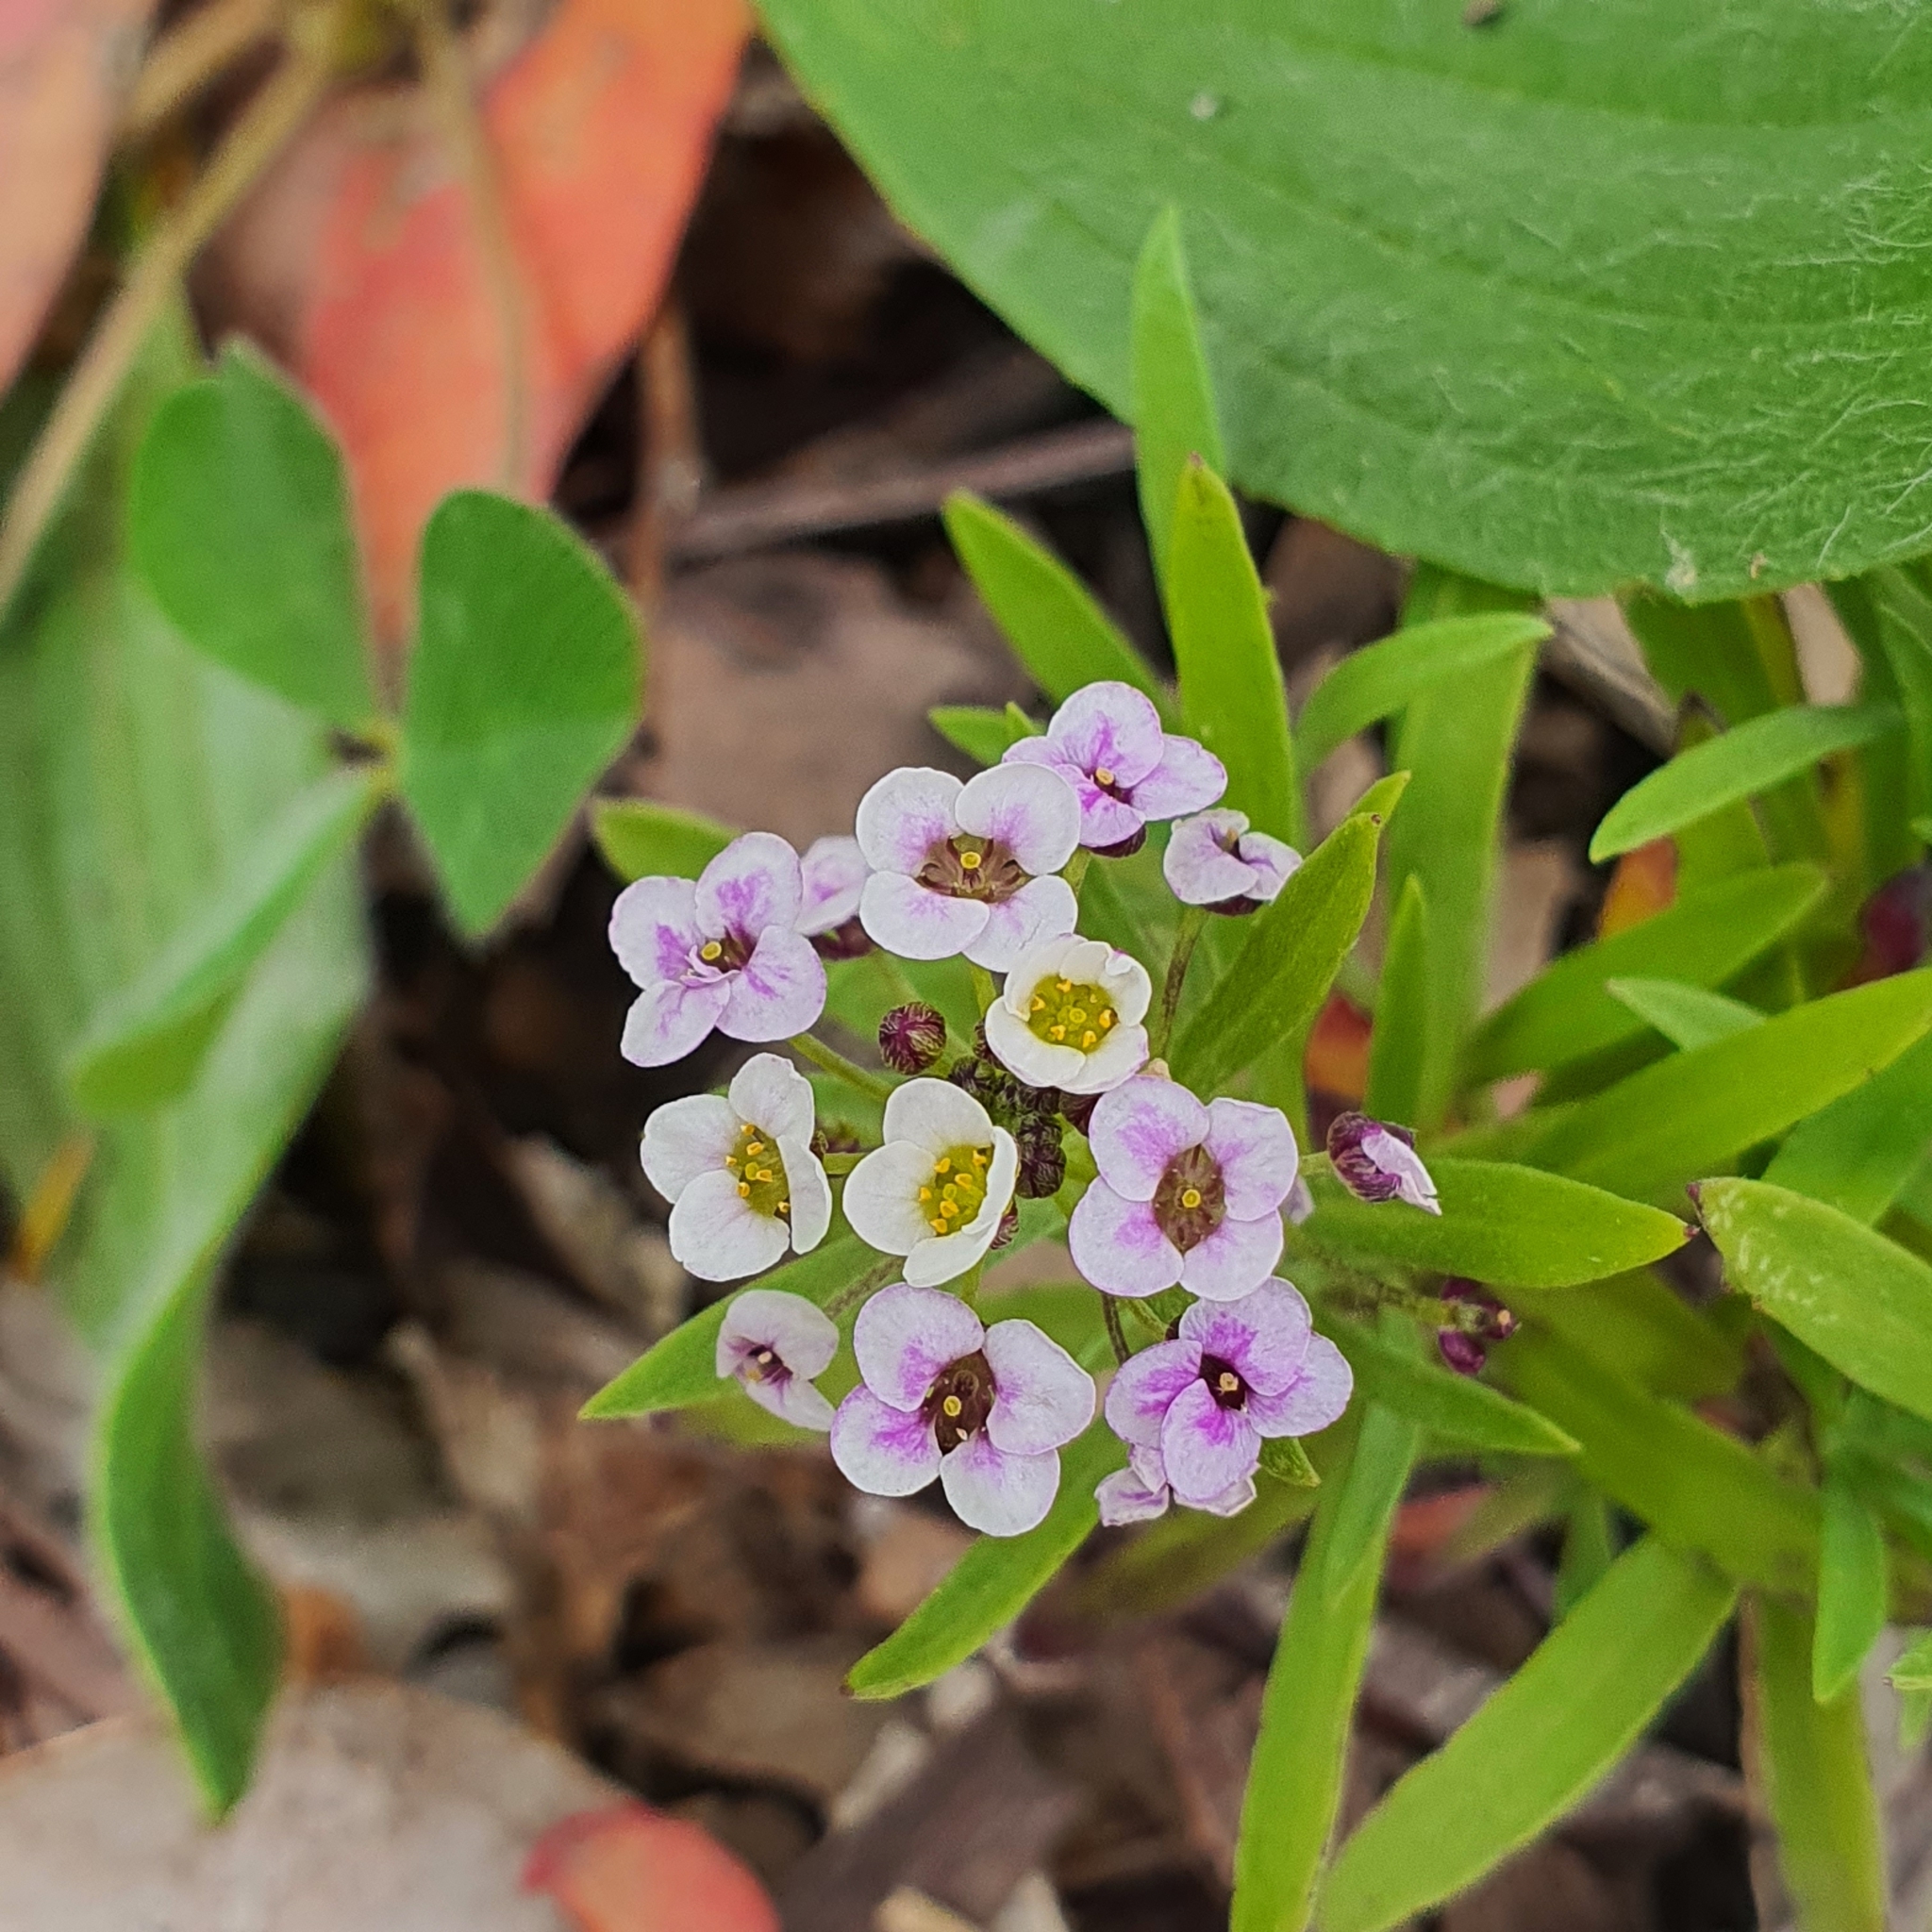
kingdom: Plantae
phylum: Tracheophyta
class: Magnoliopsida
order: Brassicales
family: Brassicaceae
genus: Lobularia
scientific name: Lobularia maritima
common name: Sweet alison
